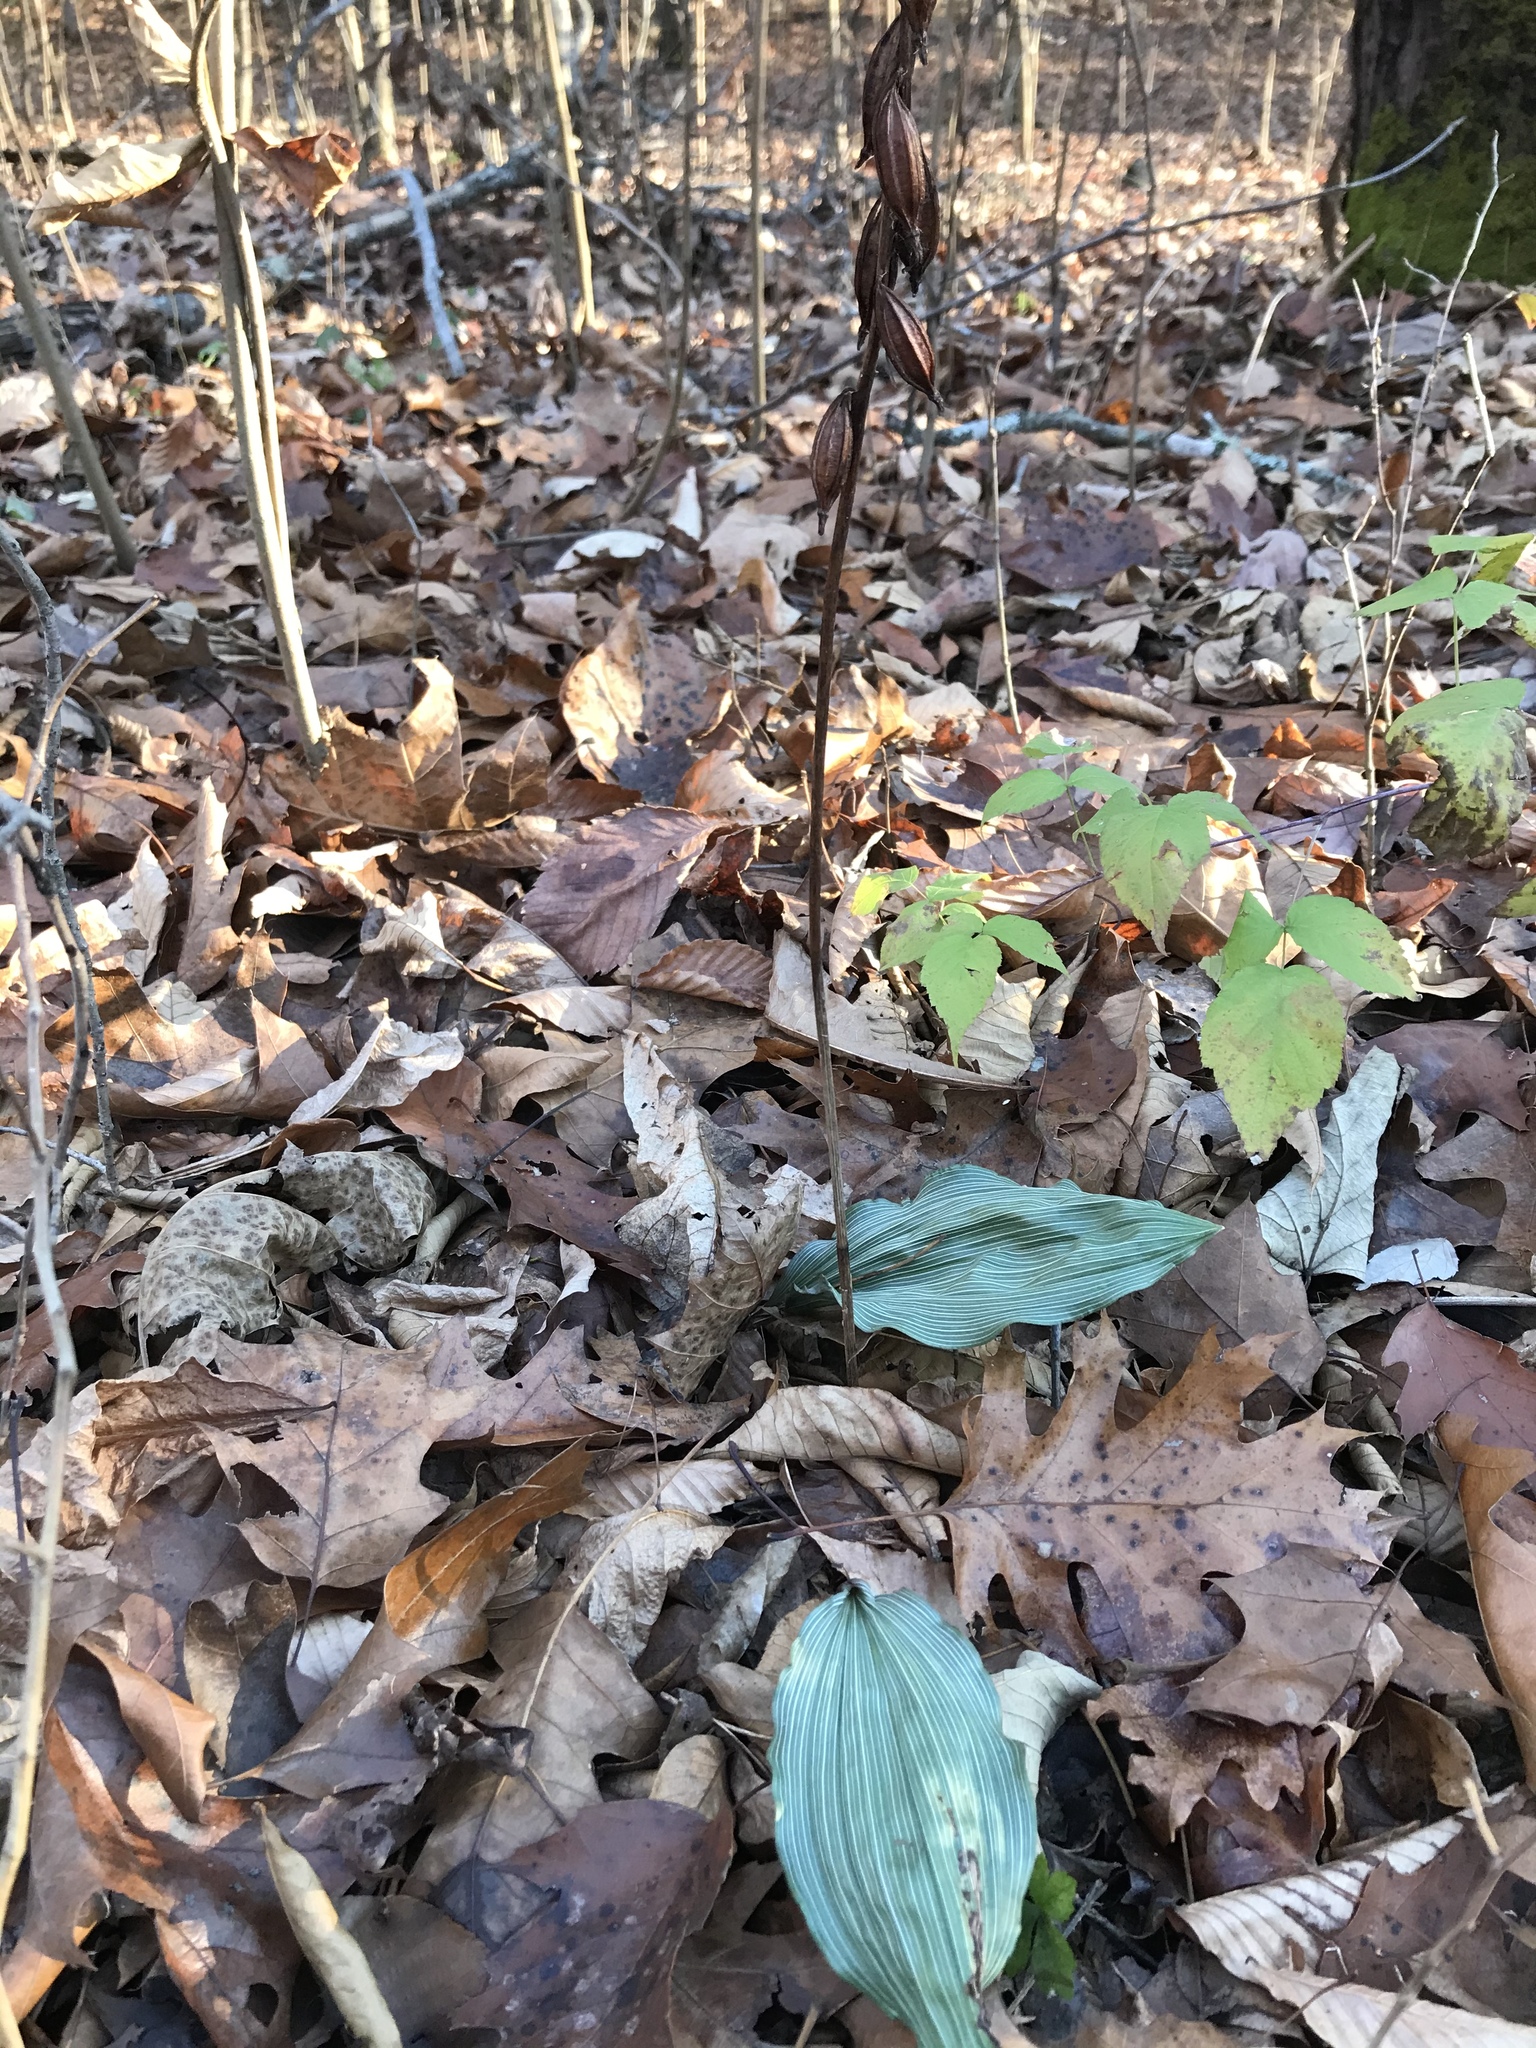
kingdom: Plantae
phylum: Tracheophyta
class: Liliopsida
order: Asparagales
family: Orchidaceae
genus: Aplectrum
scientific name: Aplectrum hyemale
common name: Adam-and-eve
